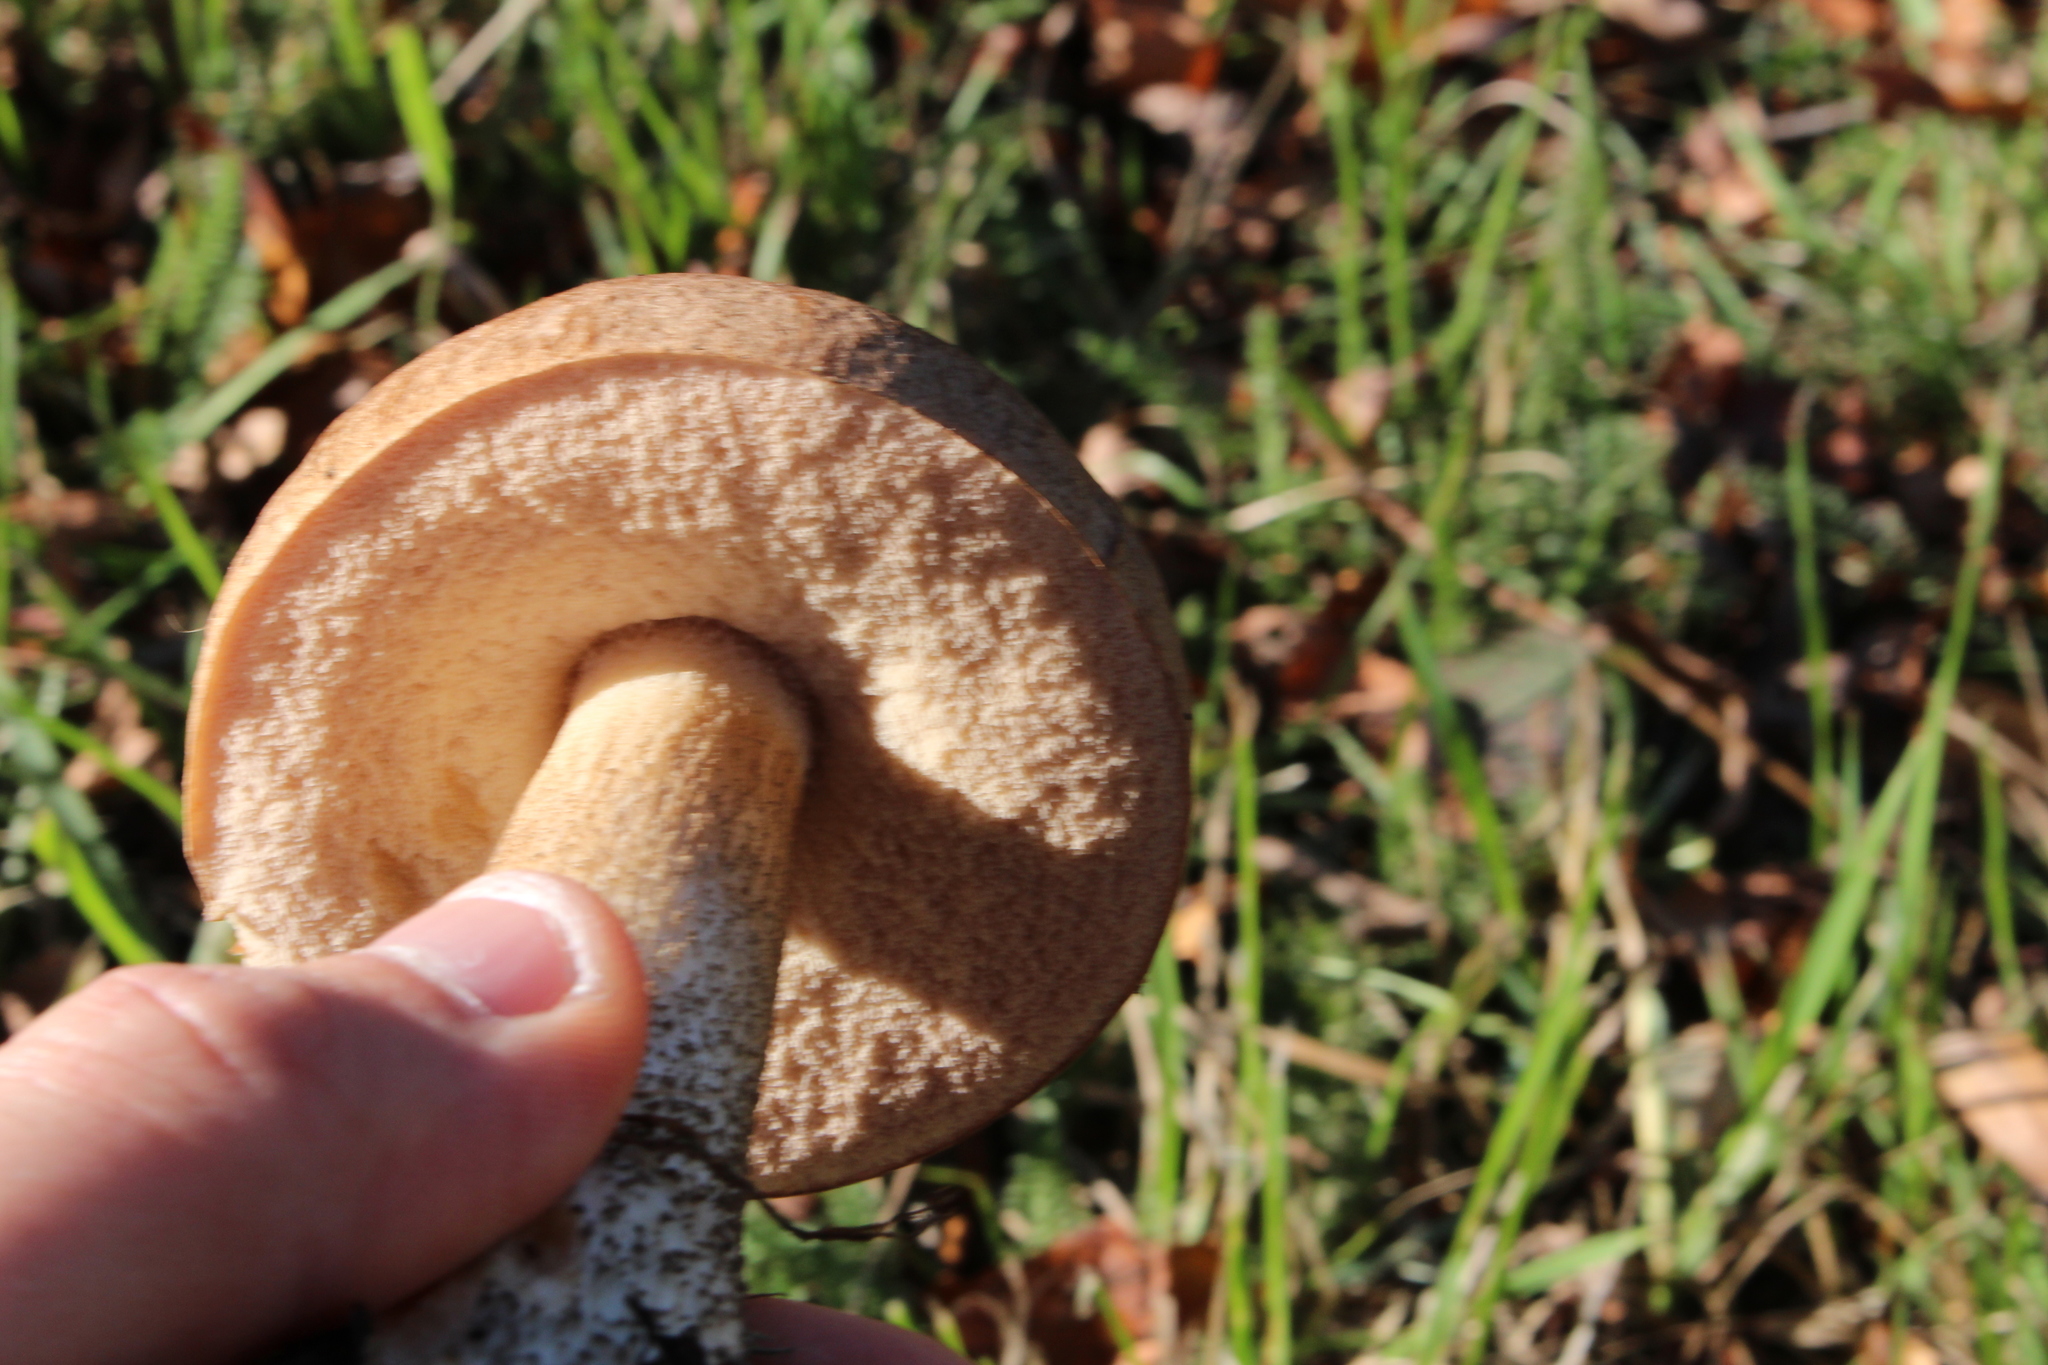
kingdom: Fungi
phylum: Basidiomycota
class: Agaricomycetes
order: Boletales
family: Boletaceae
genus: Leccinum
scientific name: Leccinum scabrum
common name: Blushing bolete
